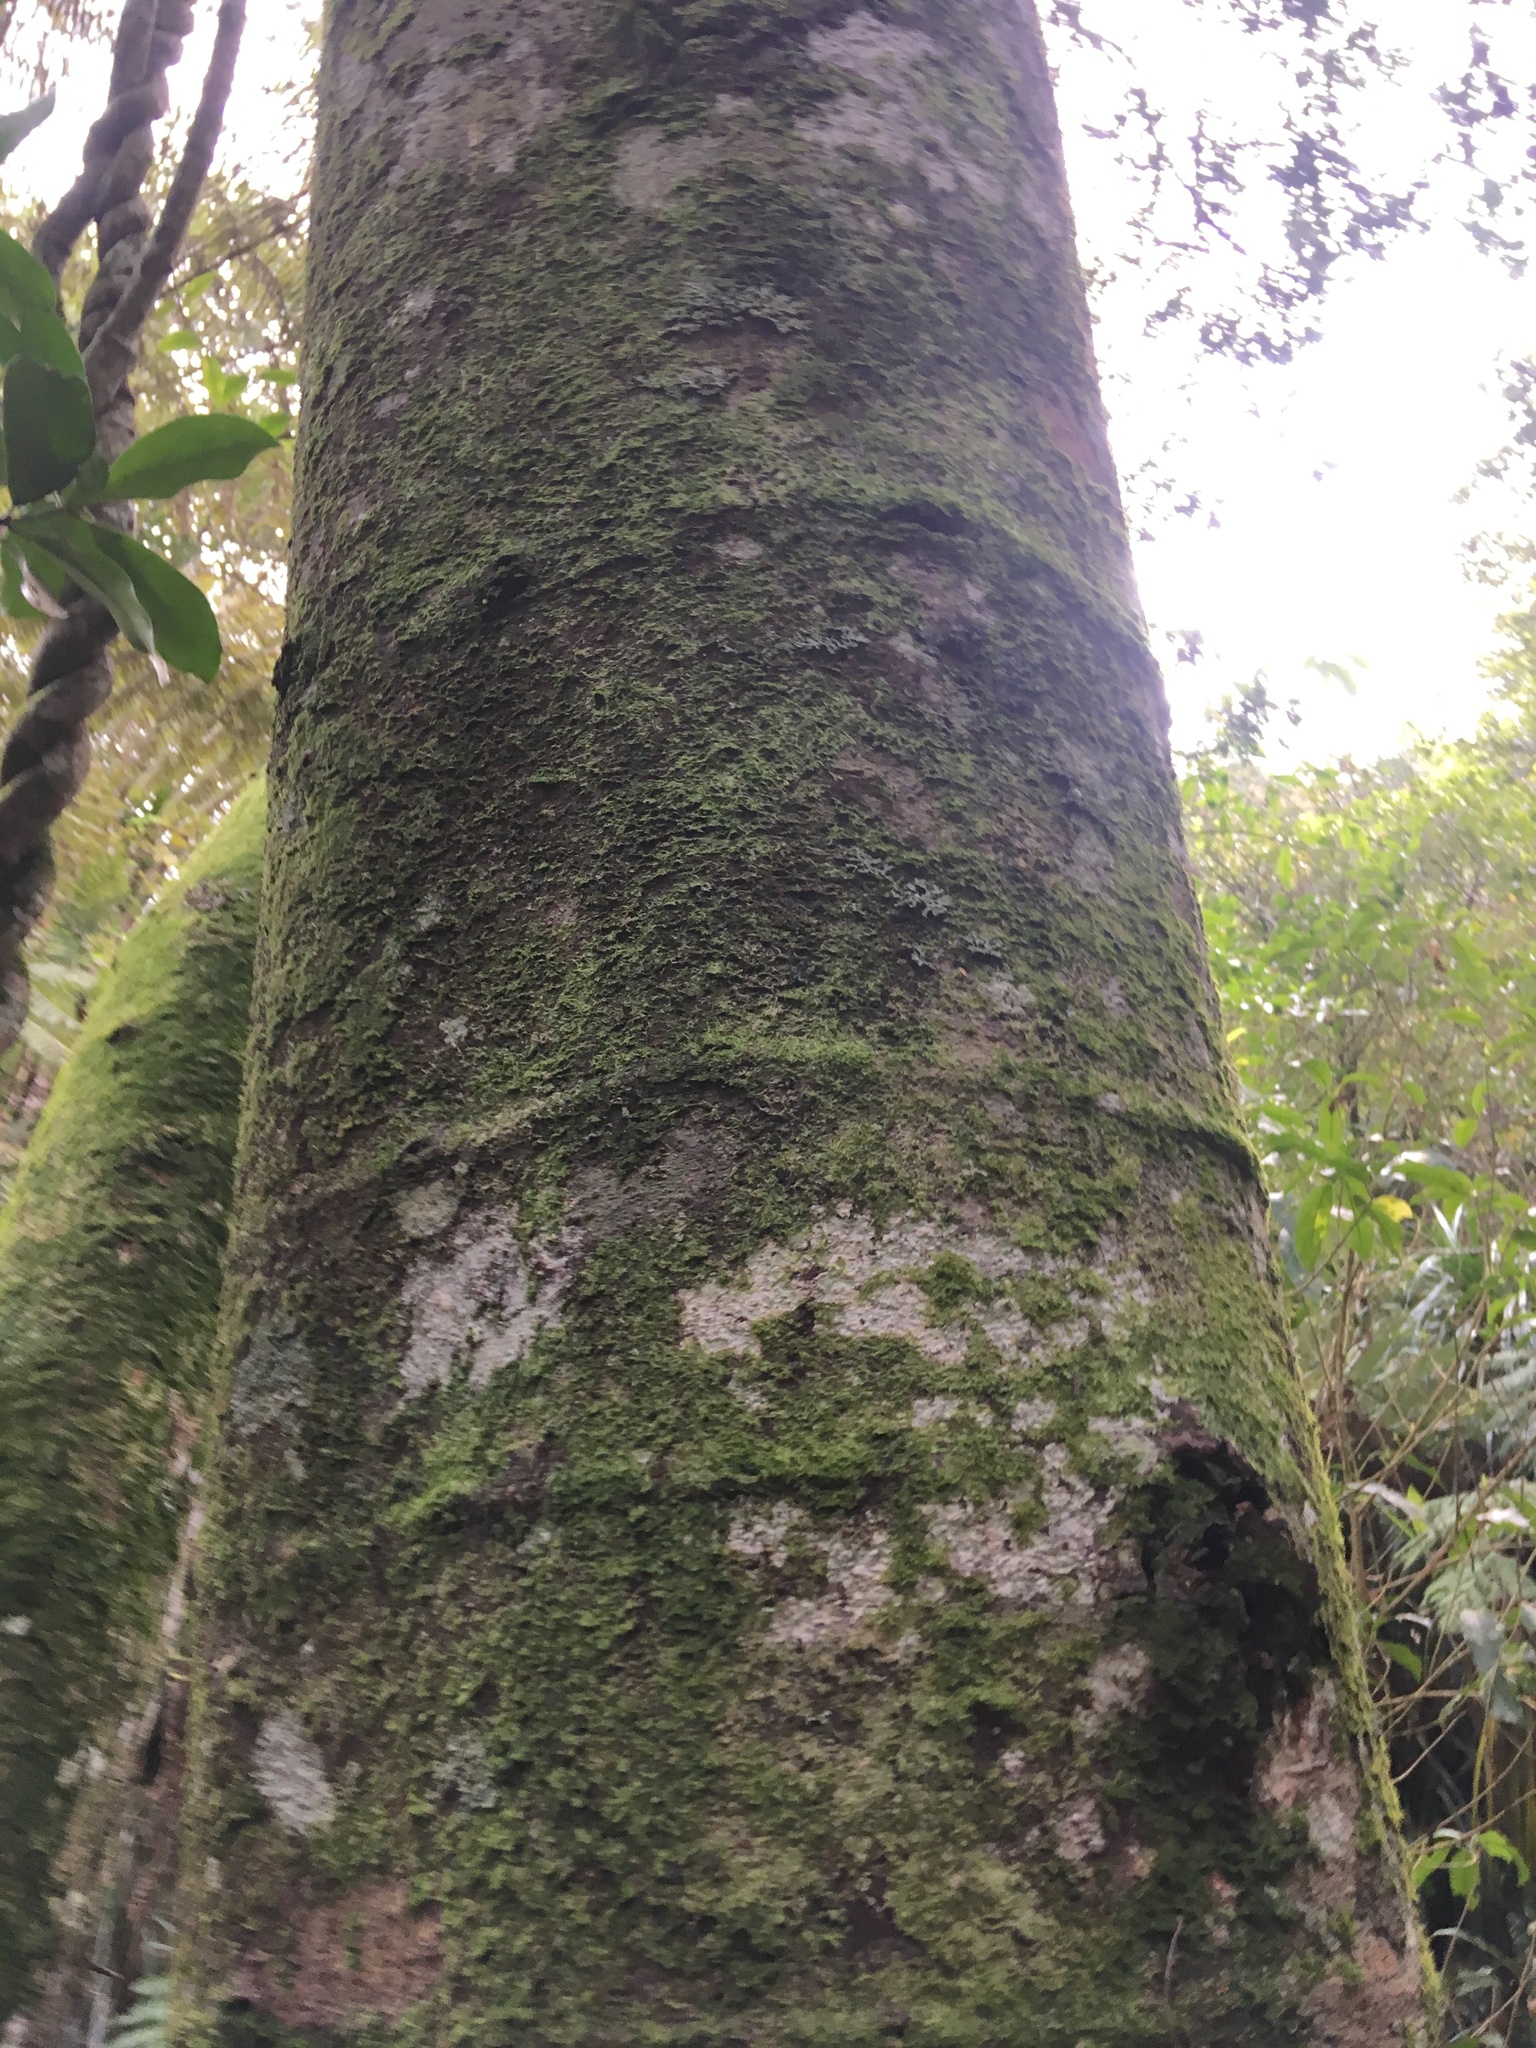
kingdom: Plantae
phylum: Tracheophyta
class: Pinopsida
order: Pinales
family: Phyllocladaceae
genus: Phyllocladus
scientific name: Phyllocladus trichomanoides
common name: Celery pine
